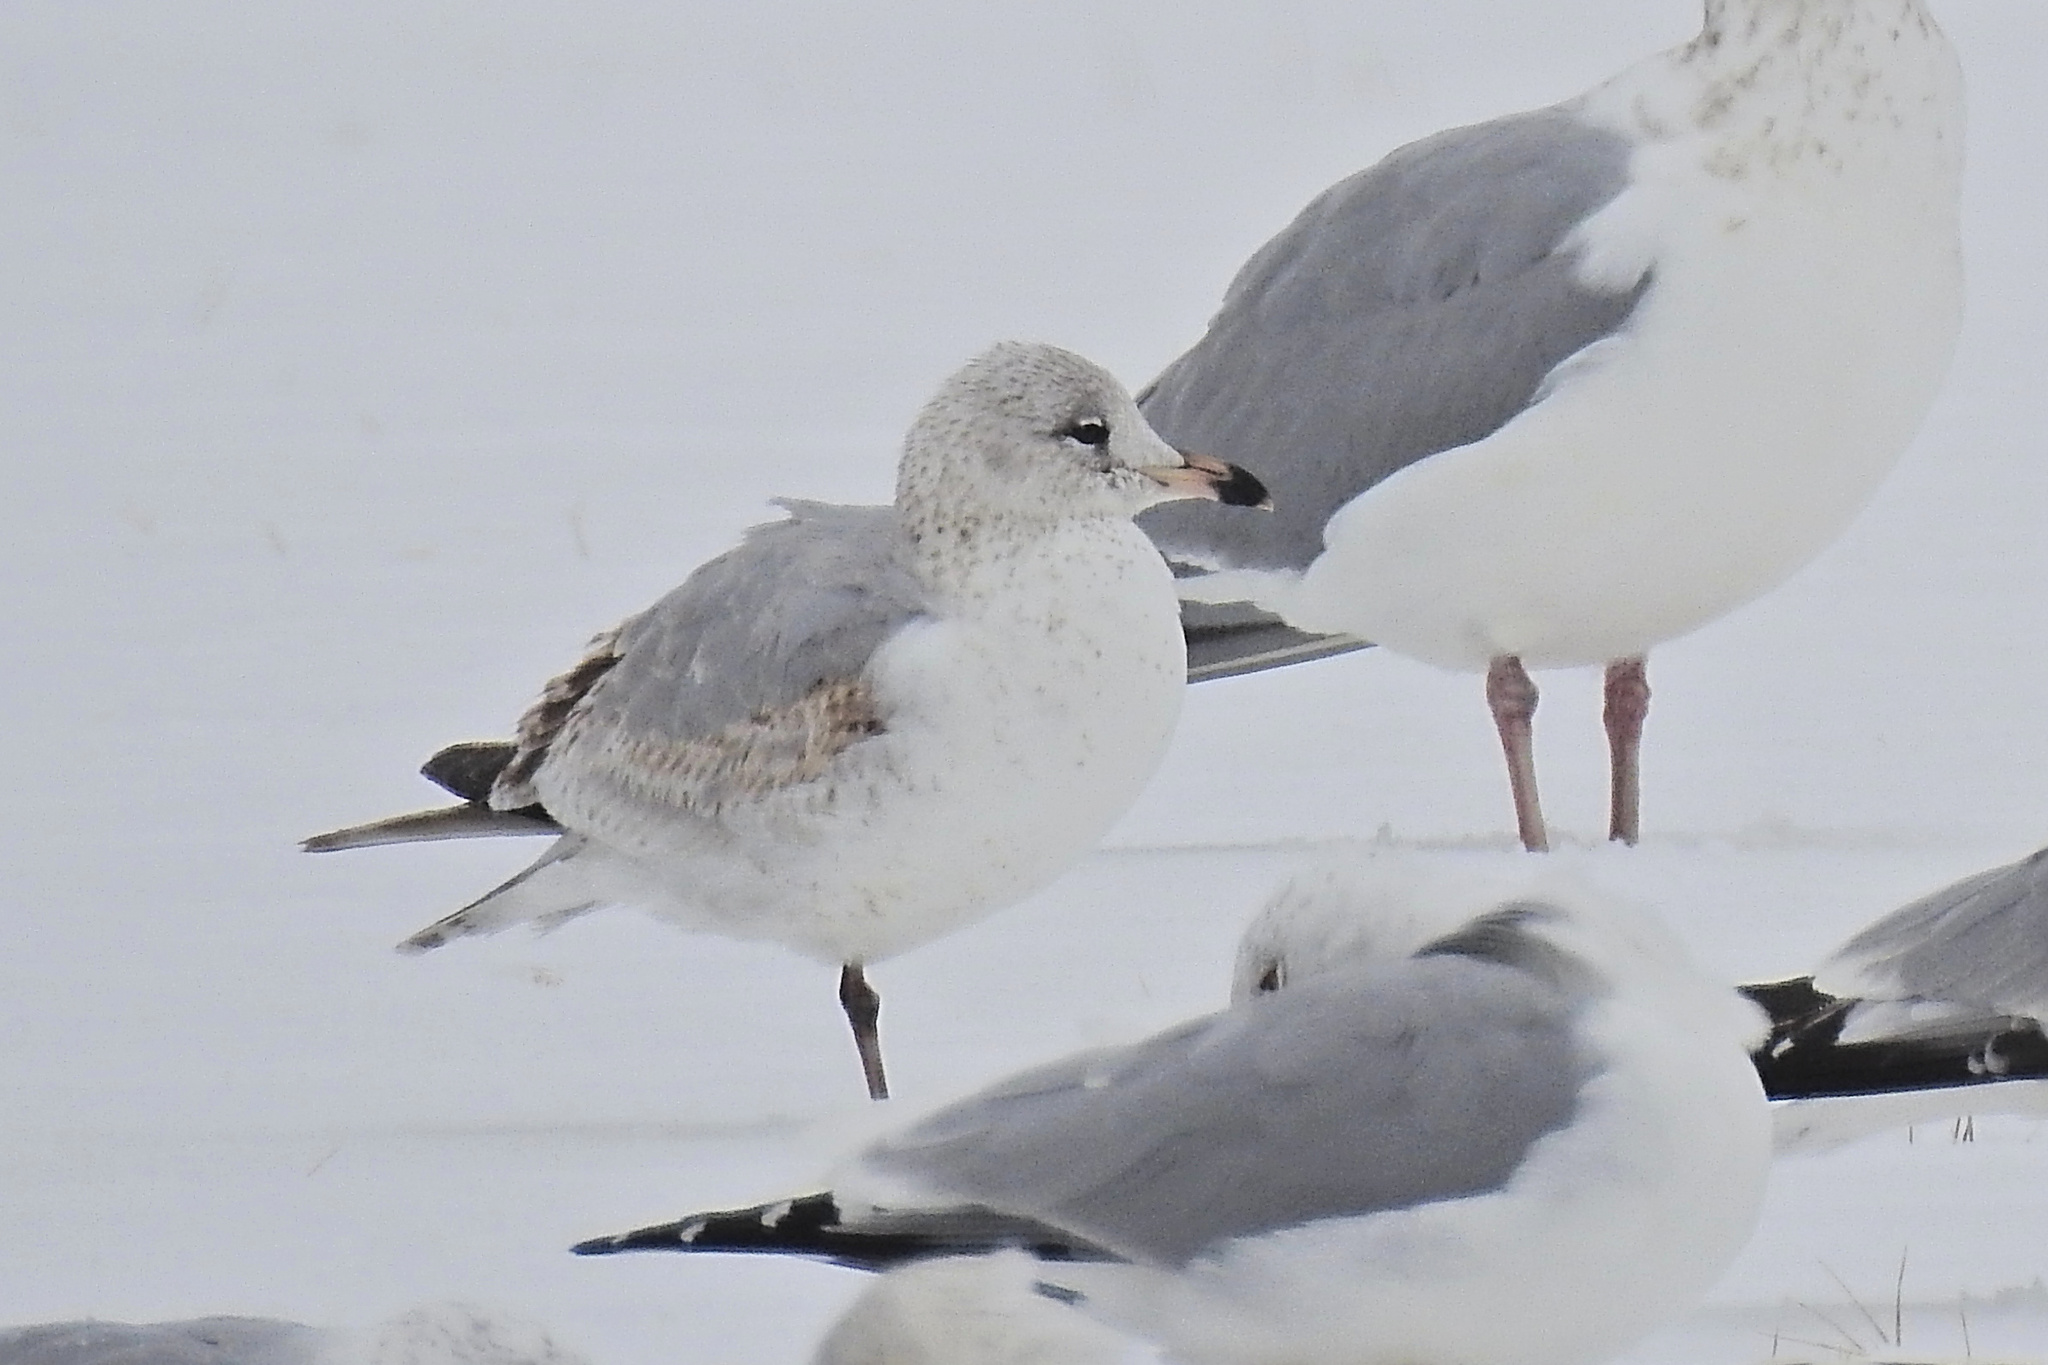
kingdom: Animalia
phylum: Chordata
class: Aves
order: Charadriiformes
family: Laridae
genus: Larus
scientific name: Larus delawarensis
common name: Ring-billed gull
